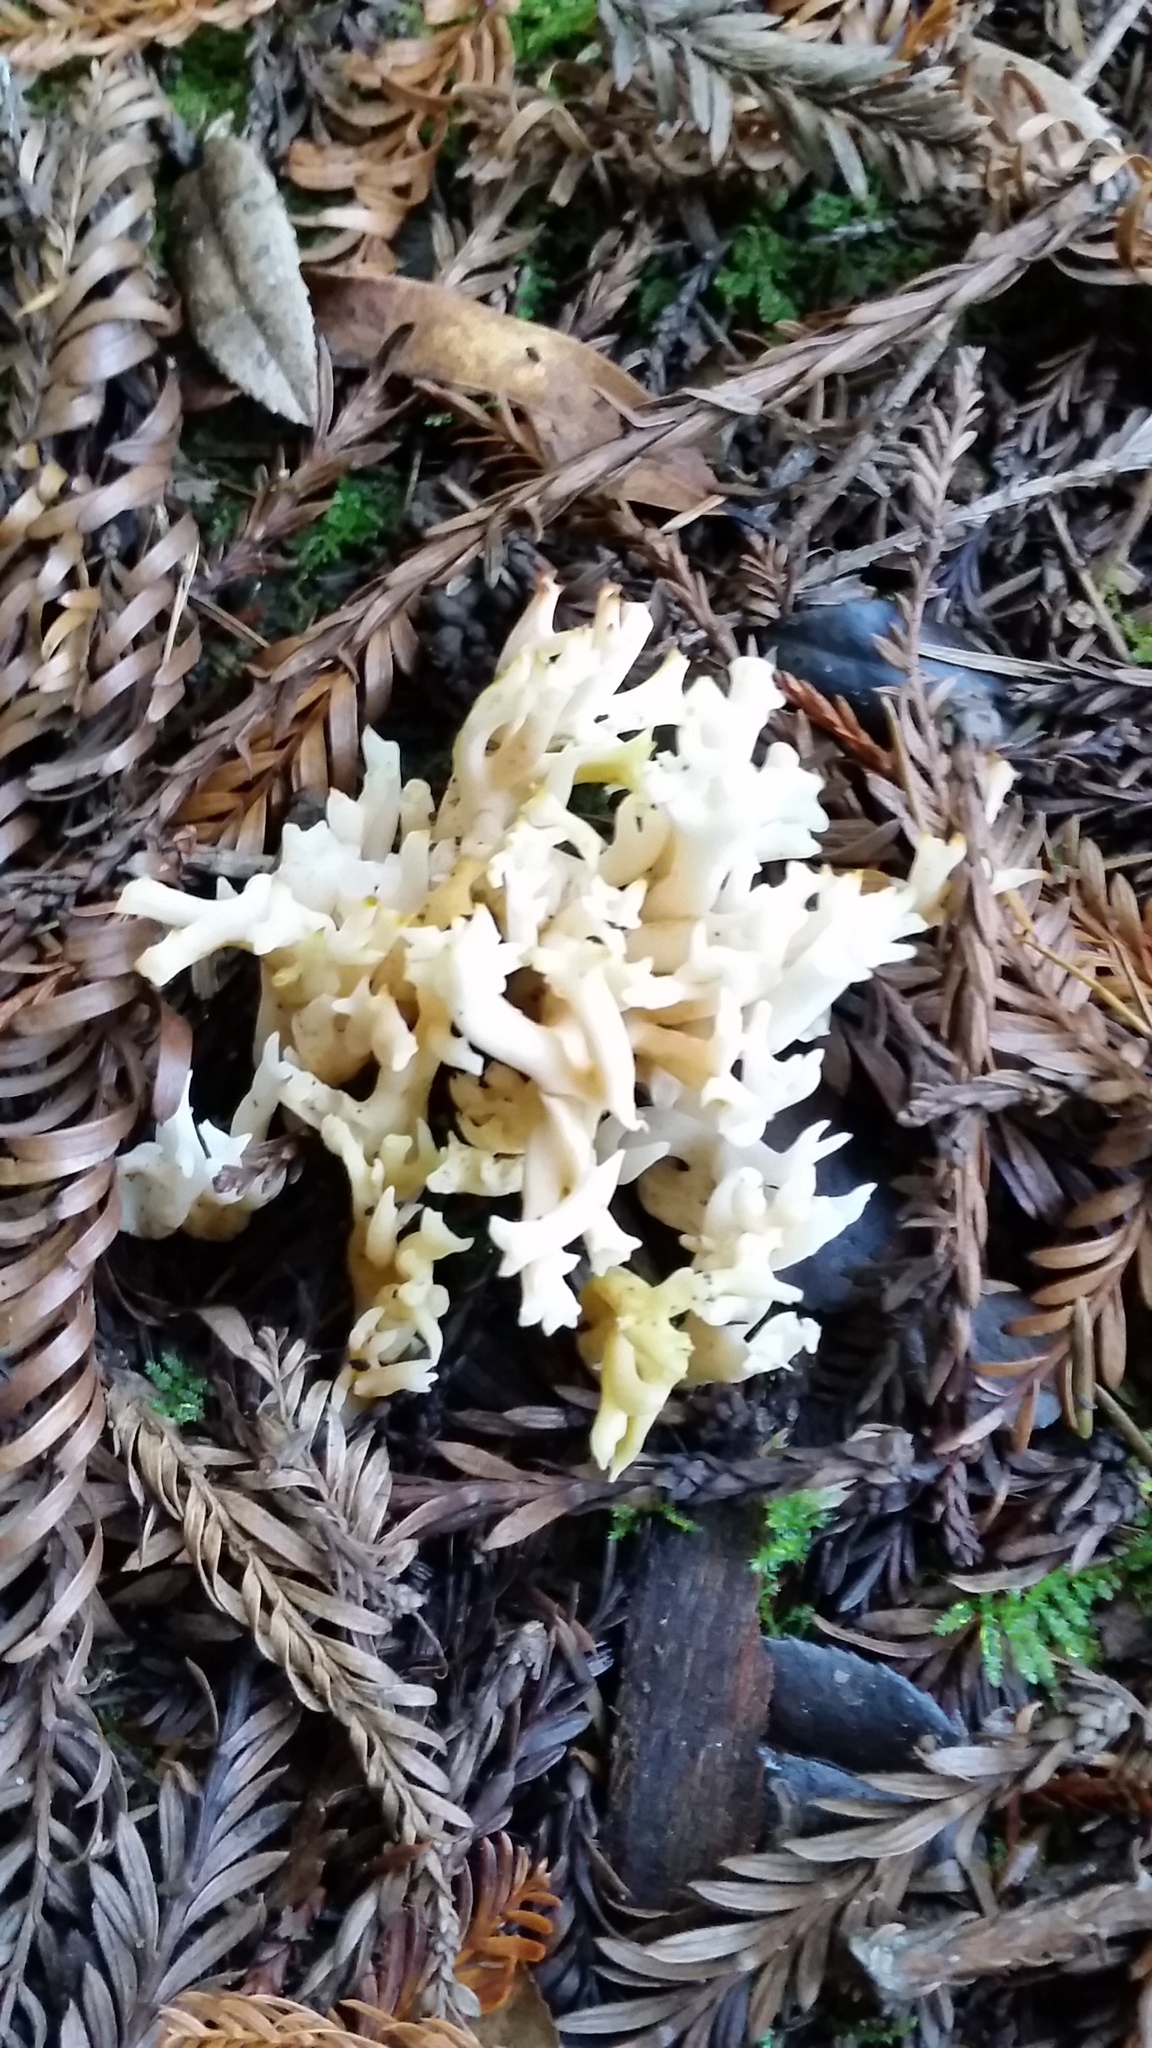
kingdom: Fungi
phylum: Basidiomycota
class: Agaricomycetes
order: Cantharellales
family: Hydnaceae
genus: Clavulina
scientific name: Clavulina coralloides
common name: Crested coral
